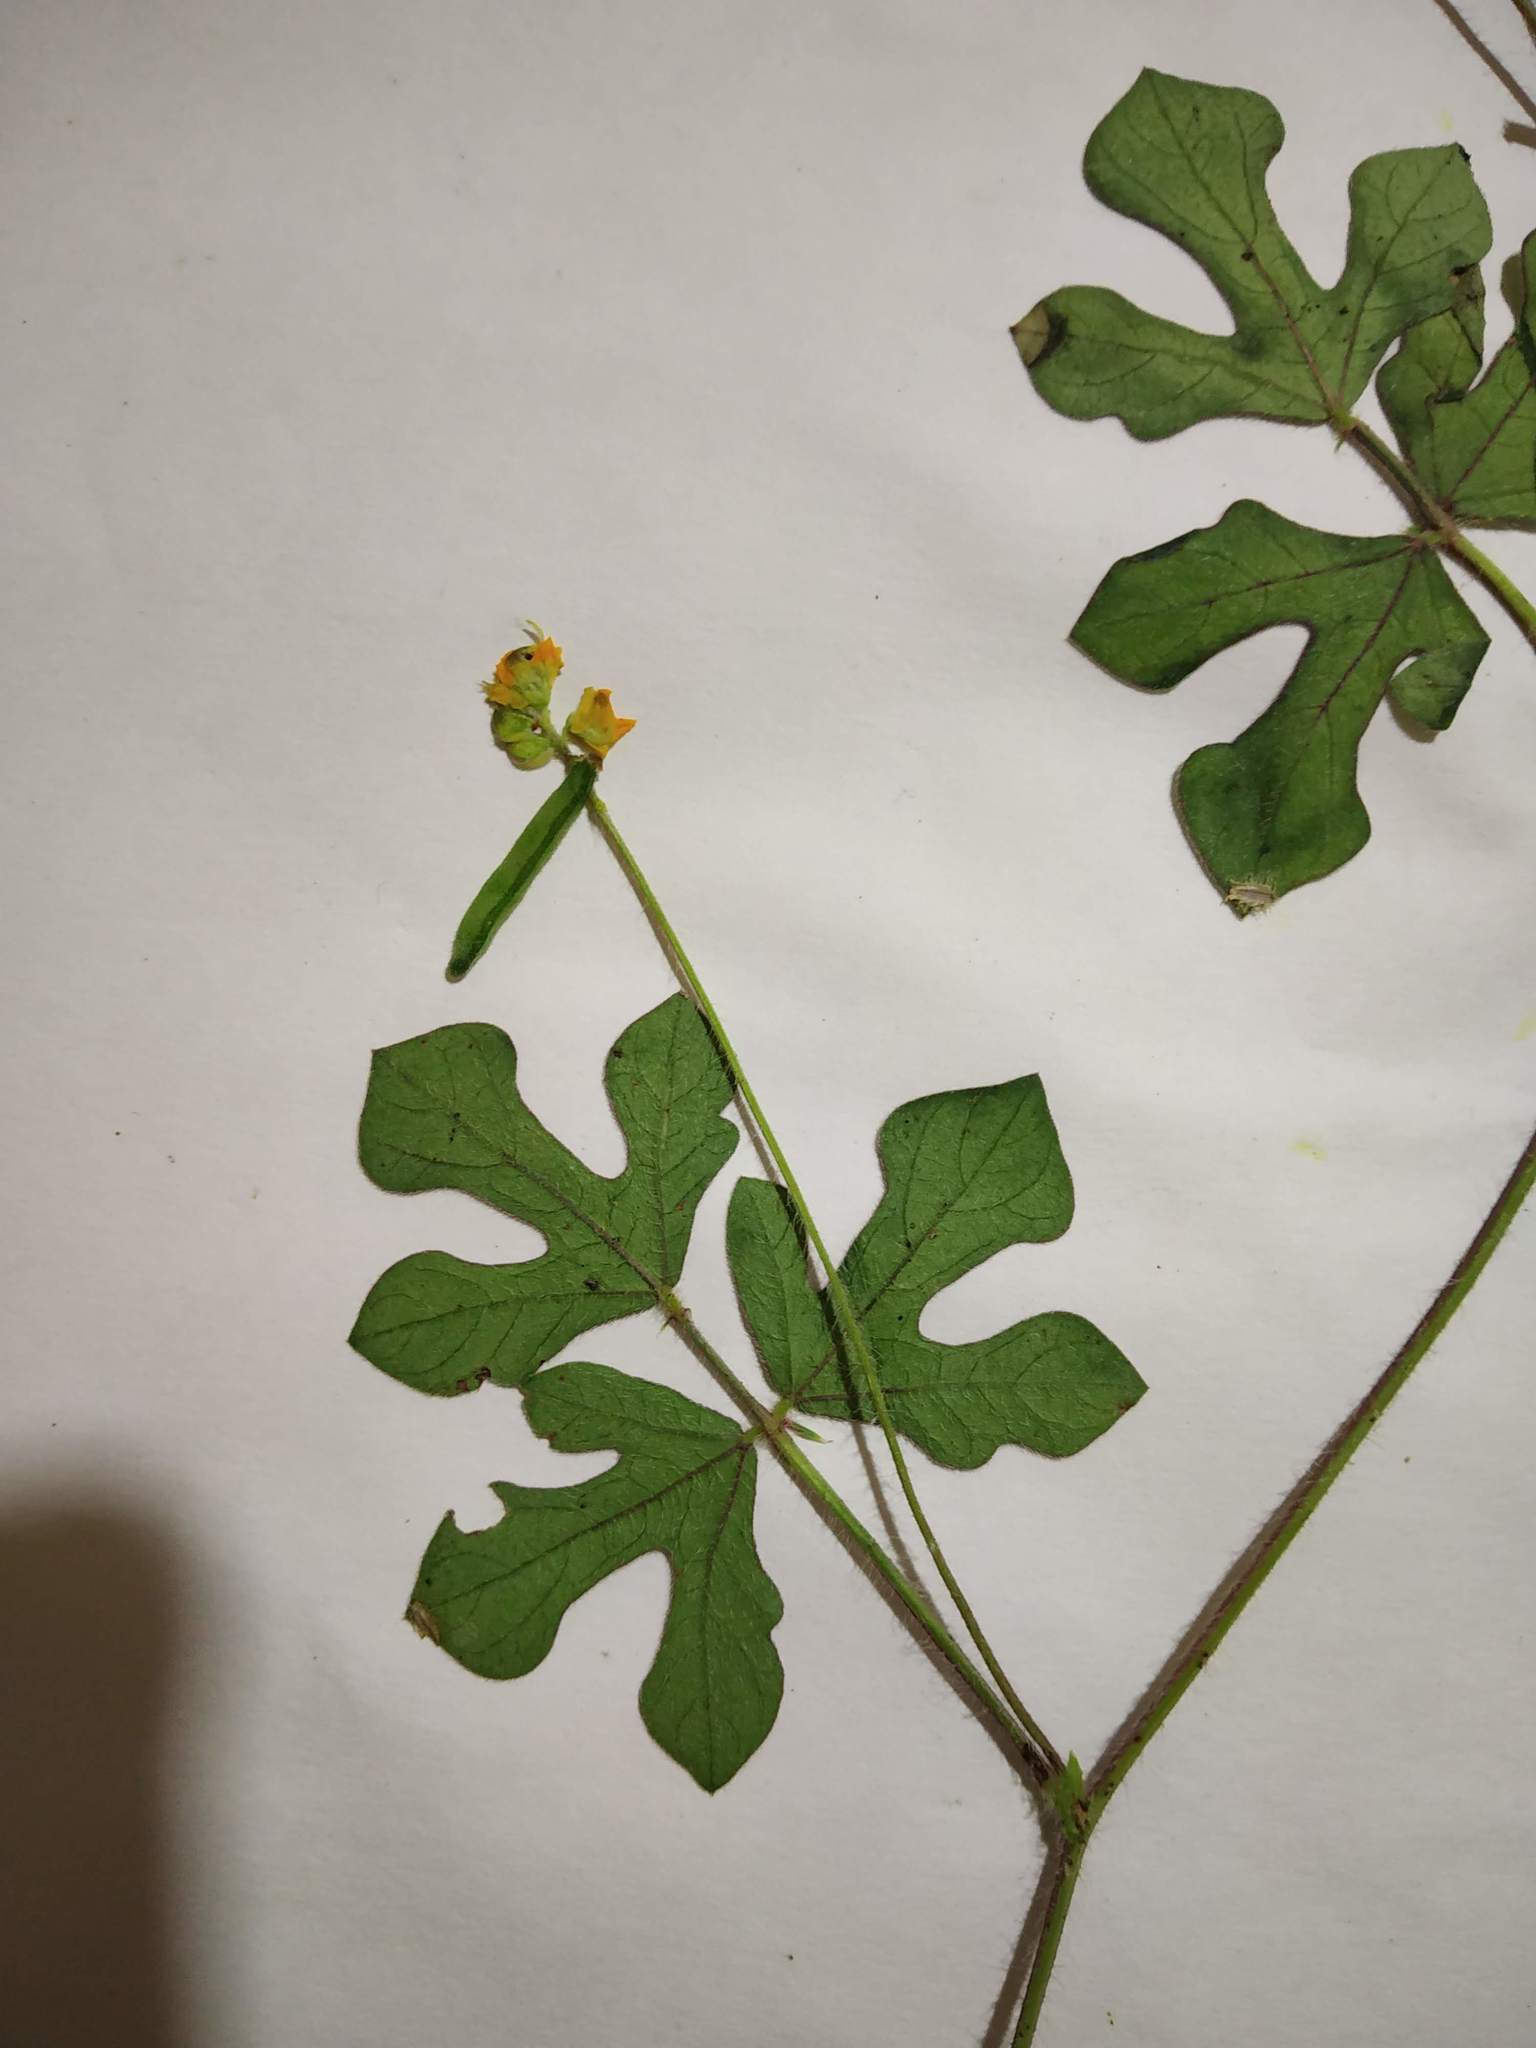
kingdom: Plantae
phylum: Tracheophyta
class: Magnoliopsida
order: Fabales
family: Fabaceae
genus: Vigna
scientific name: Vigna indica
